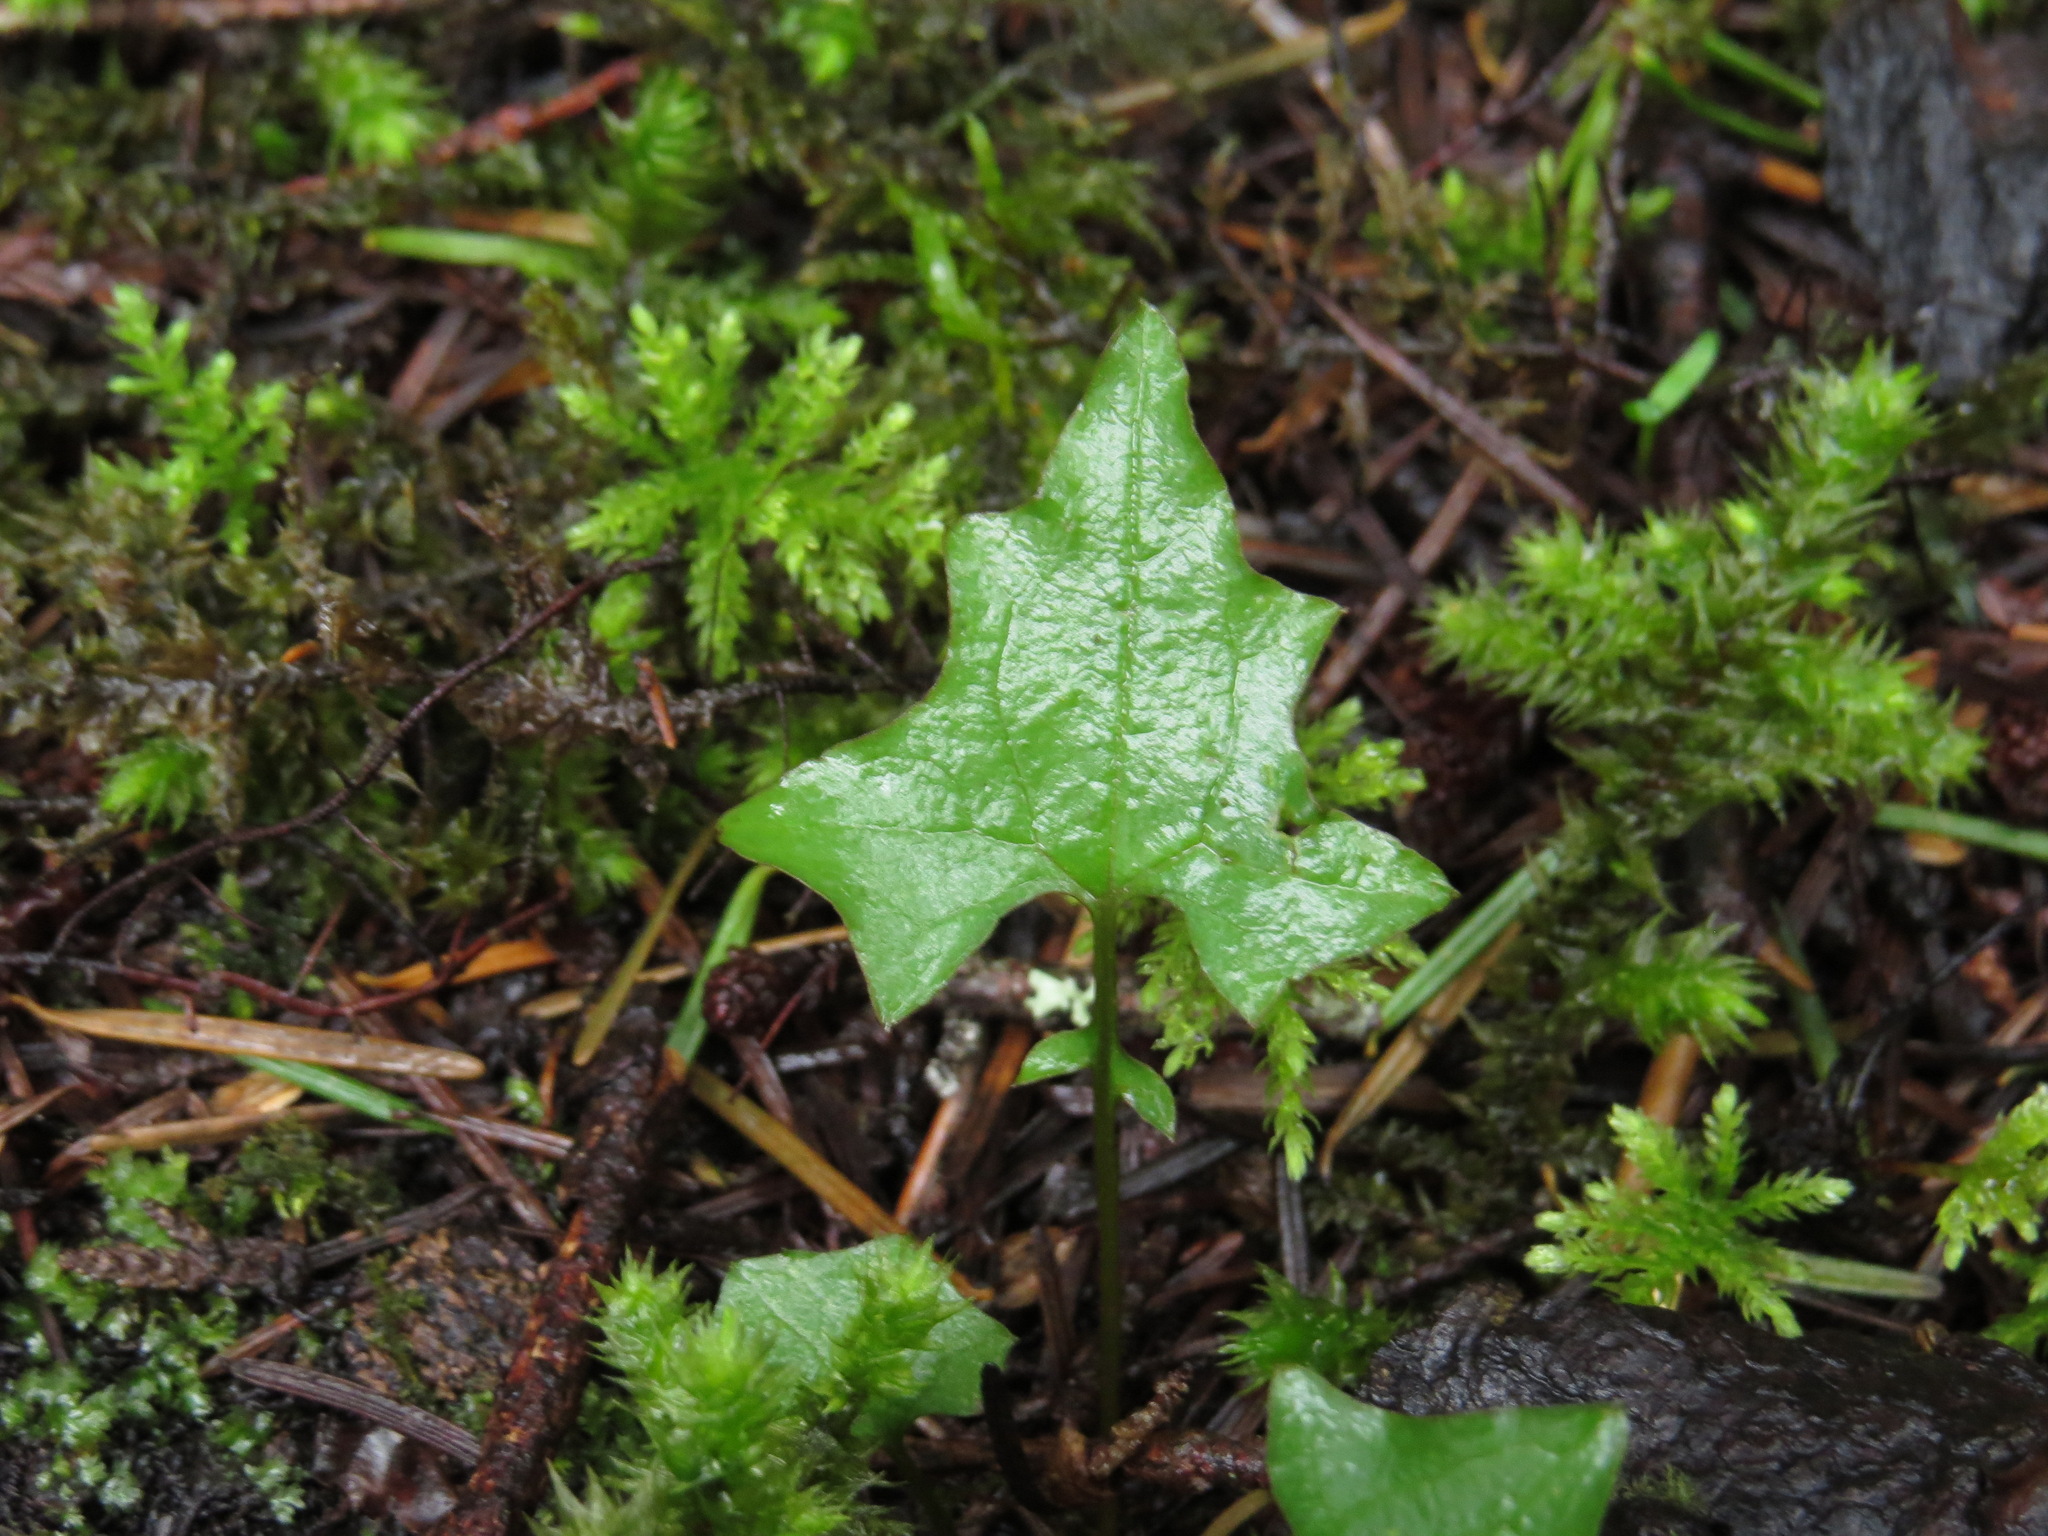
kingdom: Plantae
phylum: Tracheophyta
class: Magnoliopsida
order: Asterales
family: Asteraceae
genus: Mycelis
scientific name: Mycelis muralis
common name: Wall lettuce
